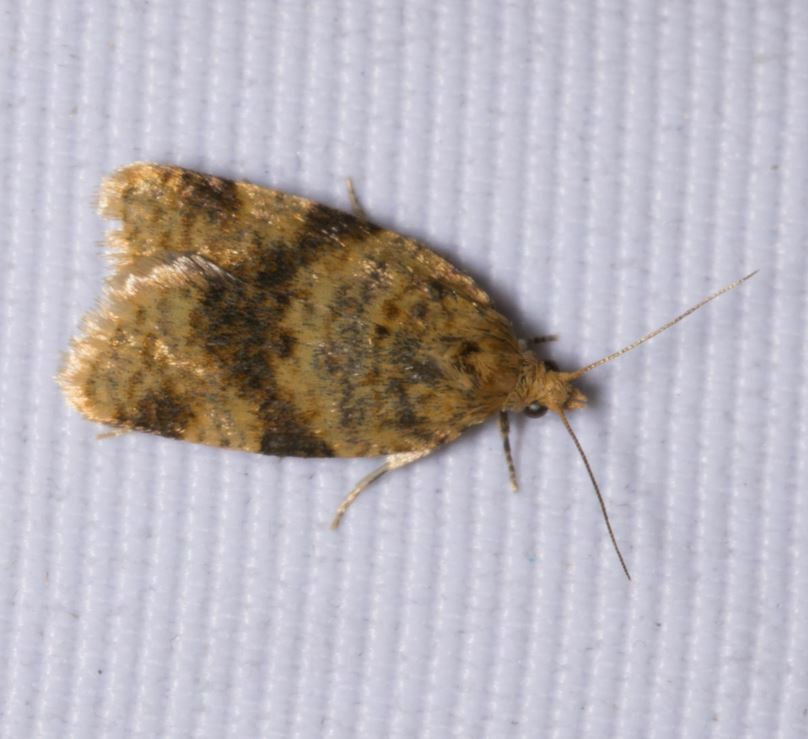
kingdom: Animalia
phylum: Arthropoda
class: Insecta
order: Lepidoptera
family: Tortricidae
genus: Epagoge
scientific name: Epagoge grotiana
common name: Brown-barred twist
